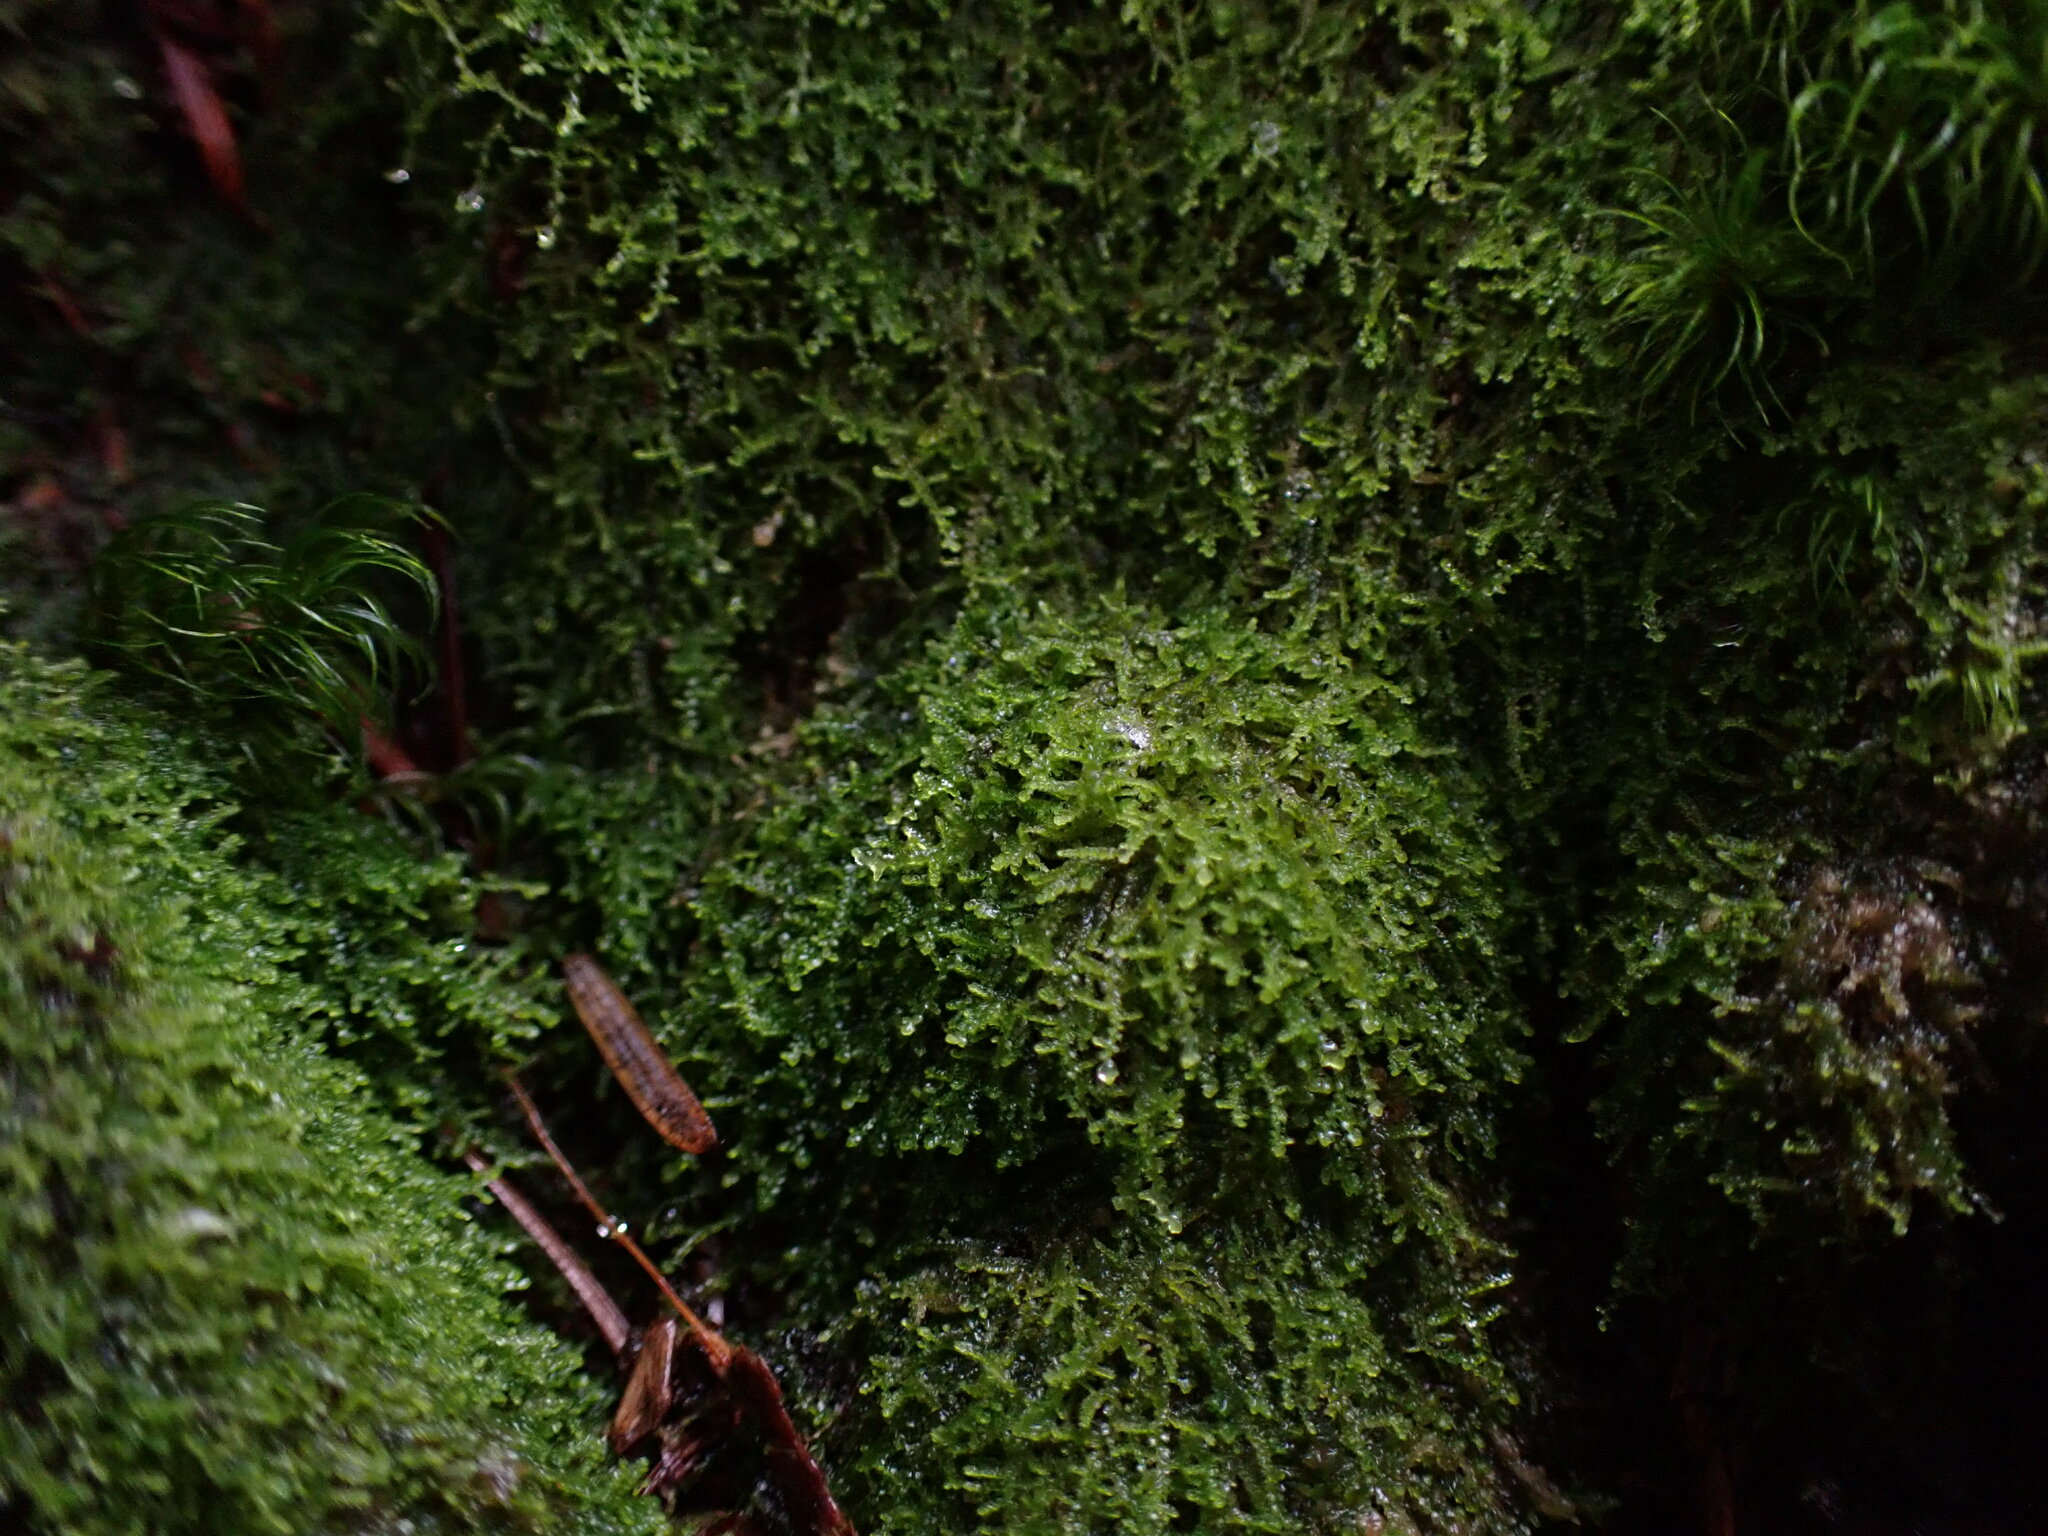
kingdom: Plantae
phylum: Marchantiophyta
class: Jungermanniopsida
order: Jungermanniales
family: Lepidoziaceae
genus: Lepidozia
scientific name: Lepidozia reptans
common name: Creeping fingerwort
